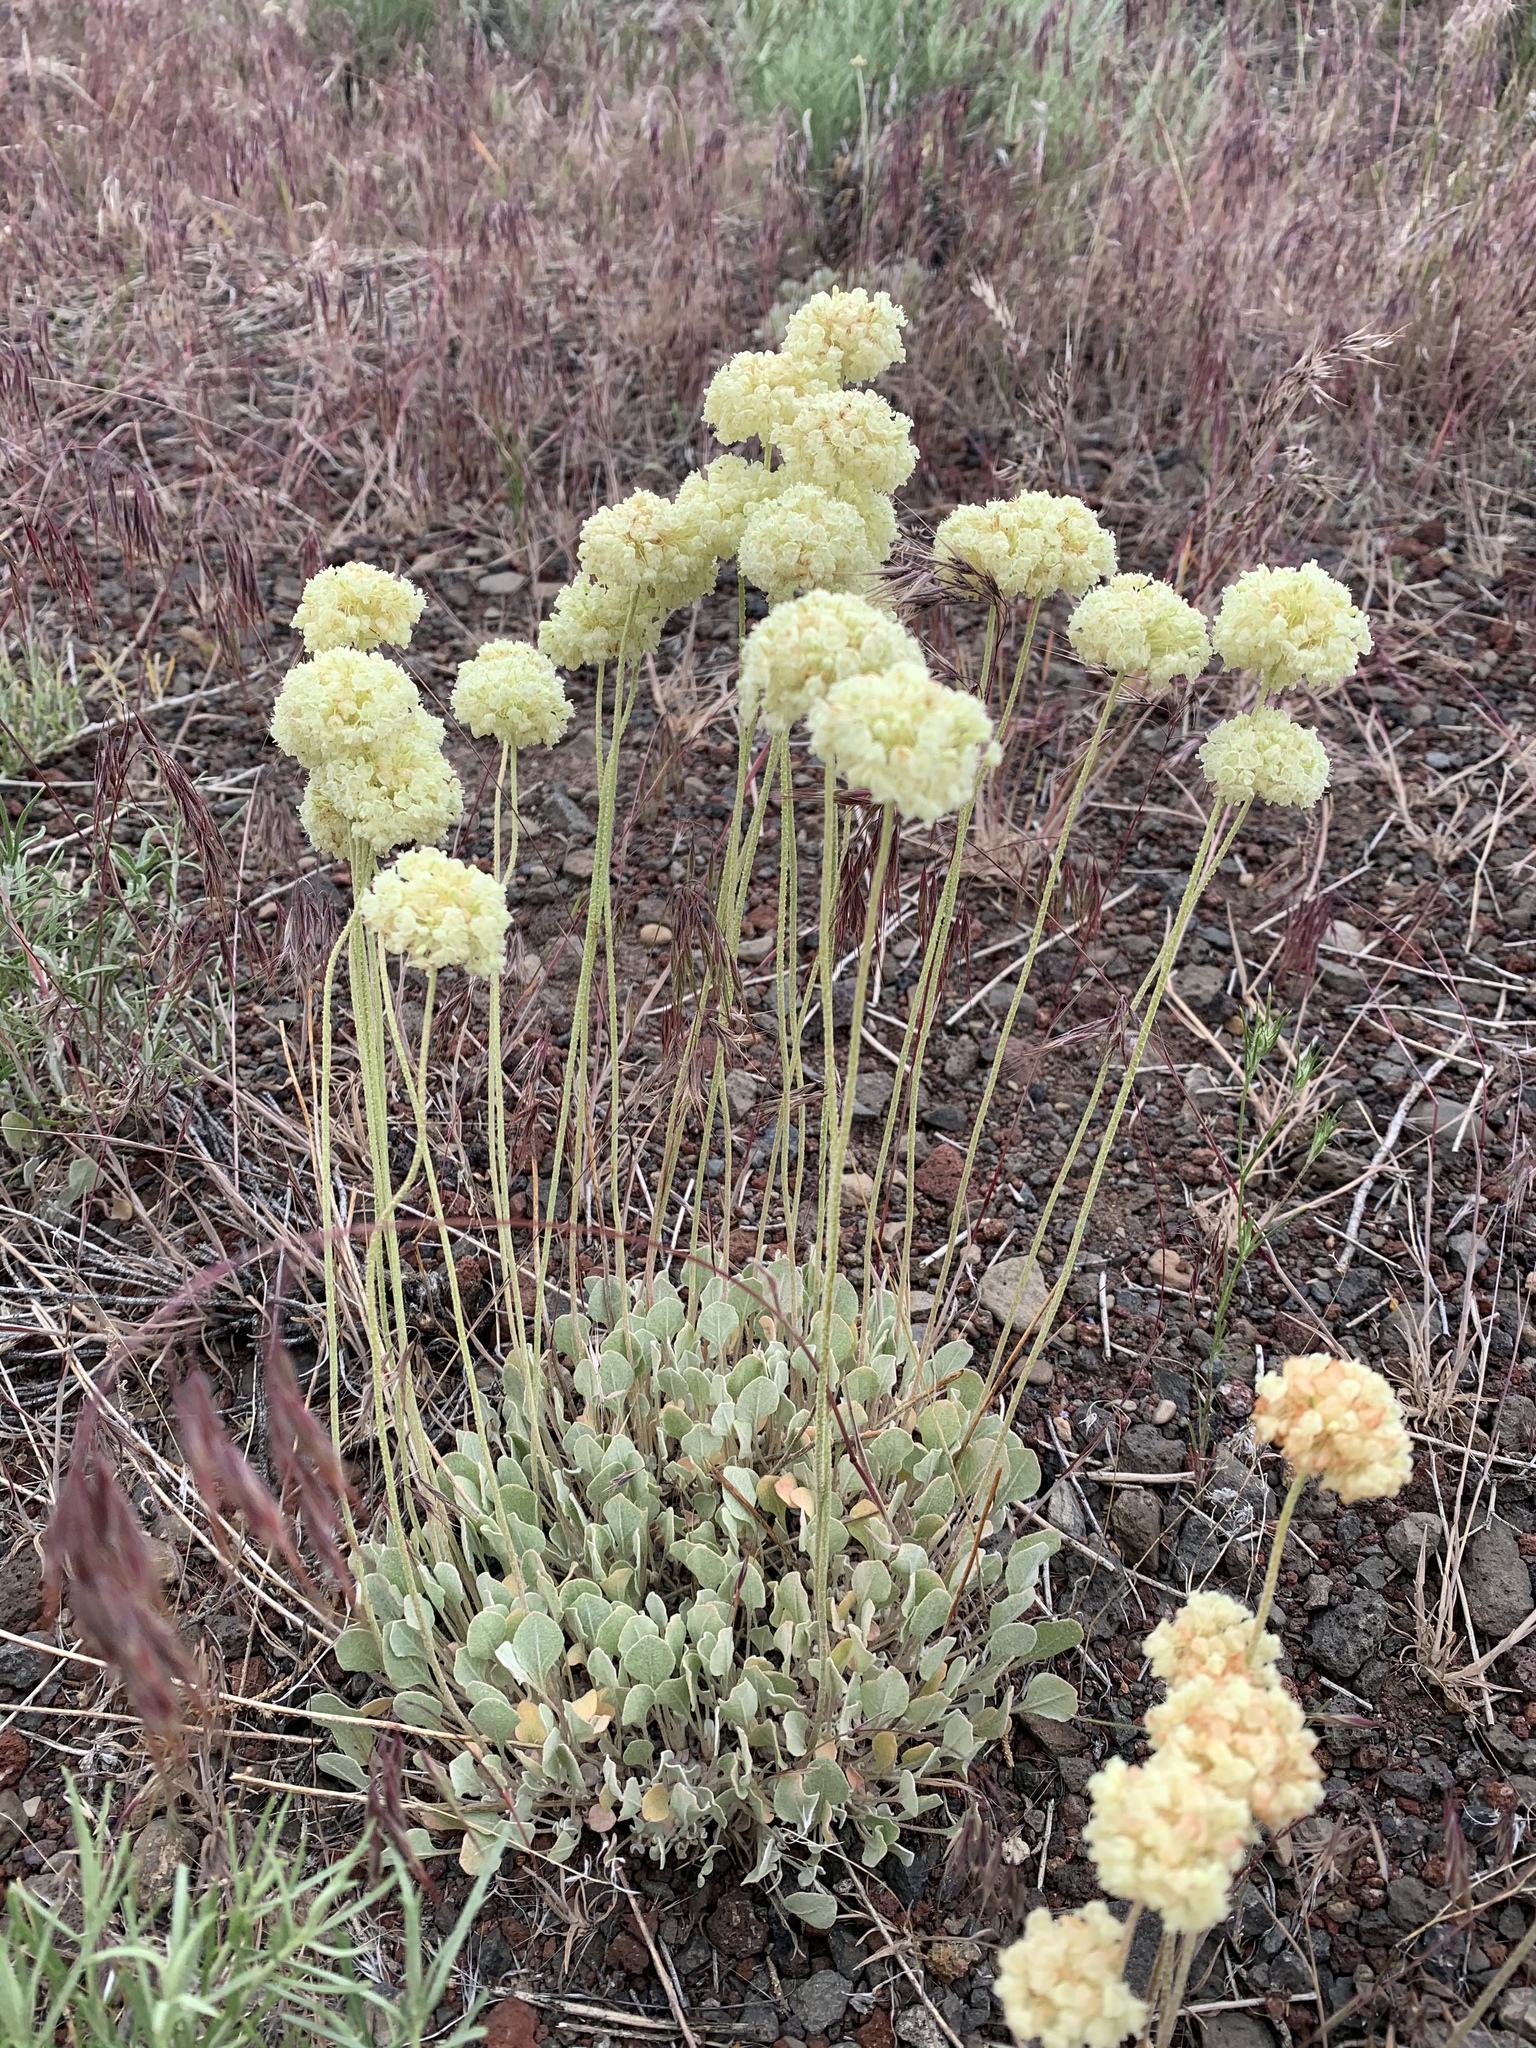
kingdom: Plantae
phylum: Tracheophyta
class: Magnoliopsida
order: Caryophyllales
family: Polygonaceae
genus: Eriogonum
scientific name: Eriogonum ovalifolium
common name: Cushion buckwheat
